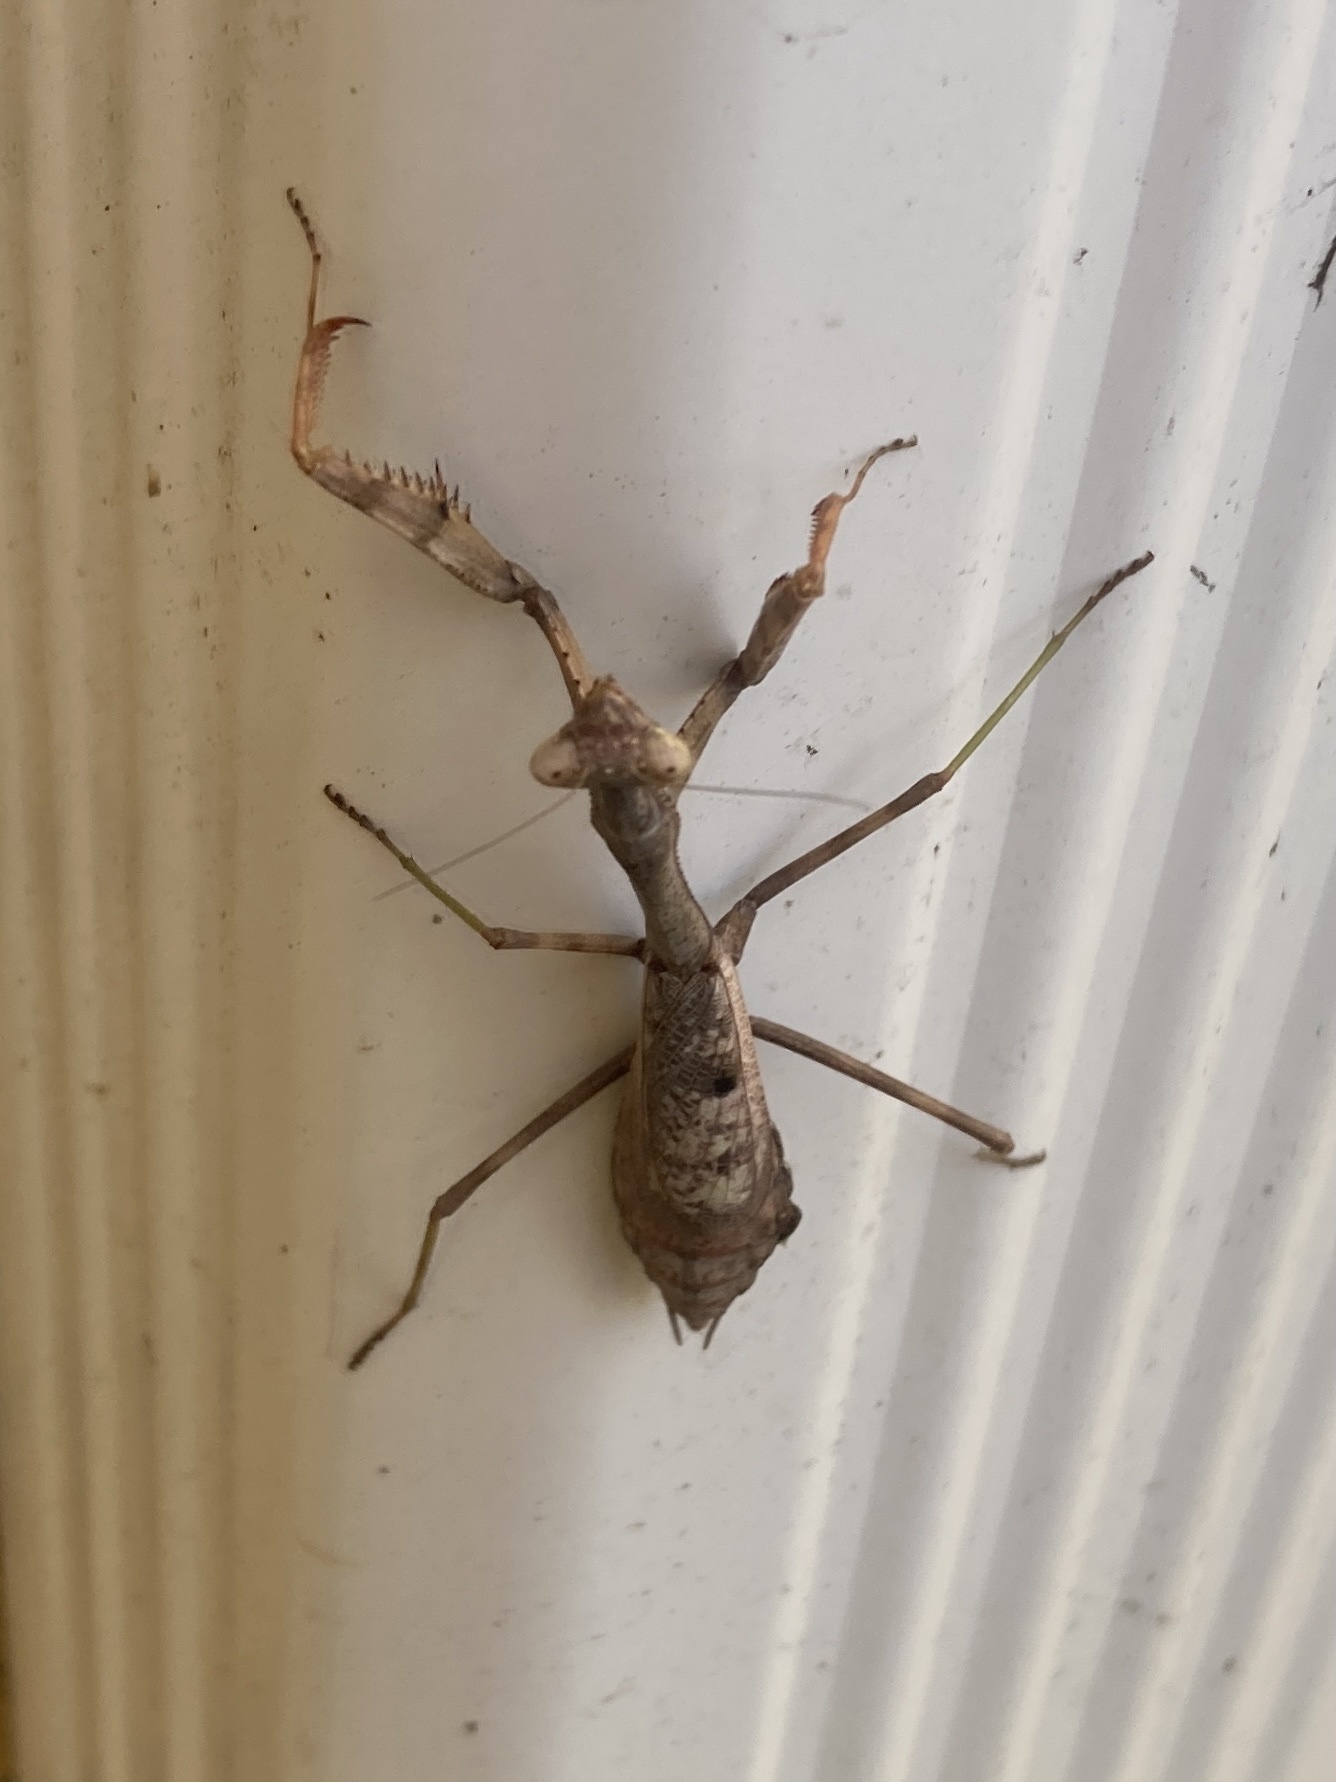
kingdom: Animalia
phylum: Arthropoda
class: Insecta
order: Mantodea
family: Mantidae
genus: Stagmomantis
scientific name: Stagmomantis carolina
